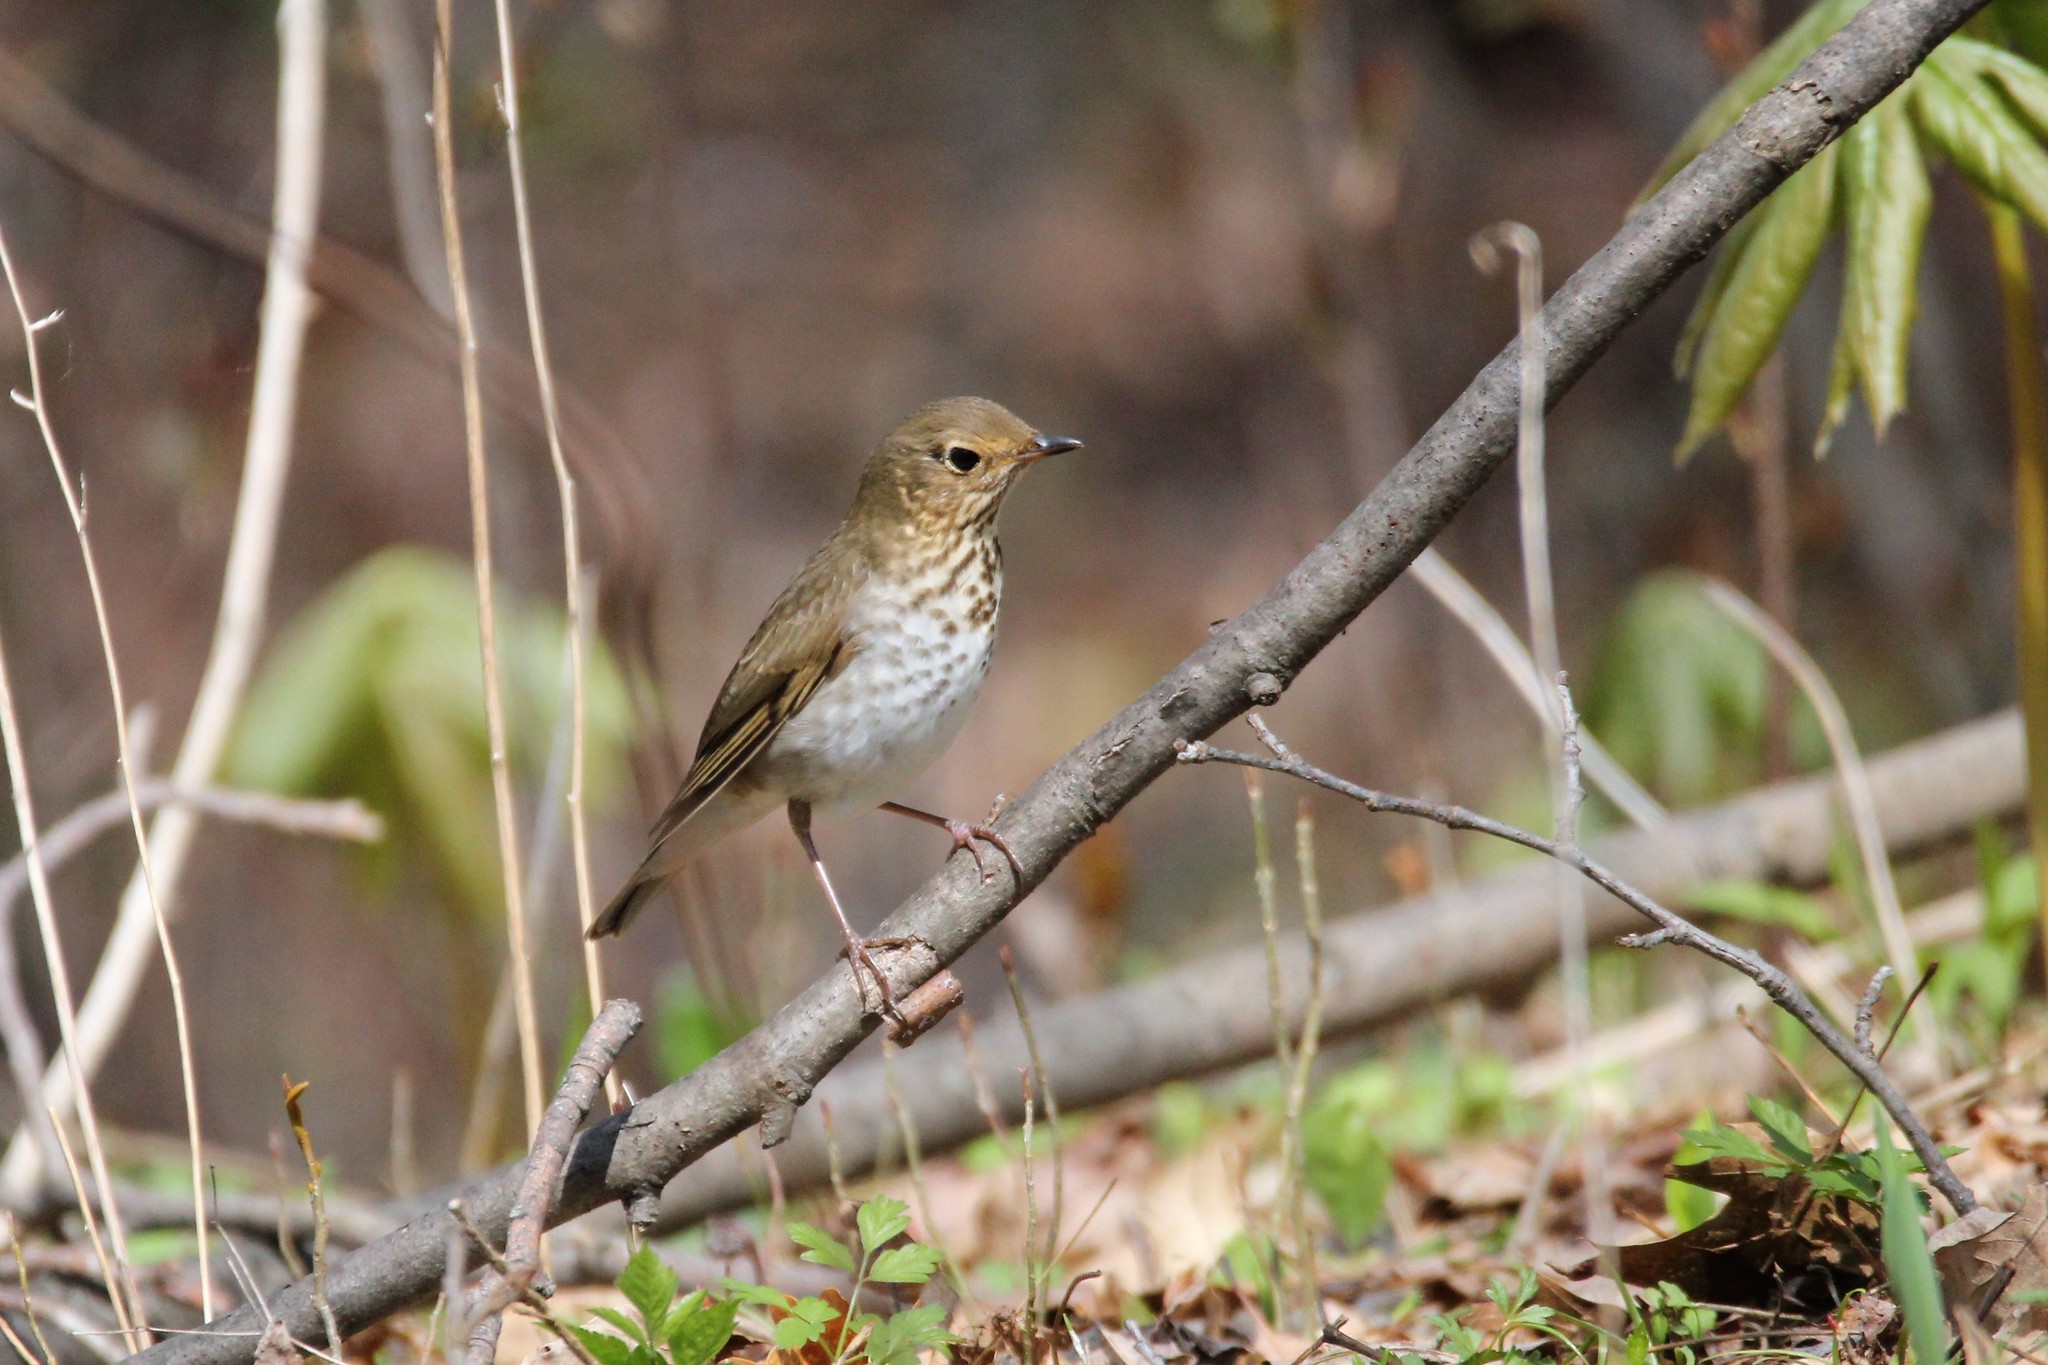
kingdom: Animalia
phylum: Chordata
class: Aves
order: Passeriformes
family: Turdidae
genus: Catharus
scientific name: Catharus ustulatus
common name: Swainson's thrush
